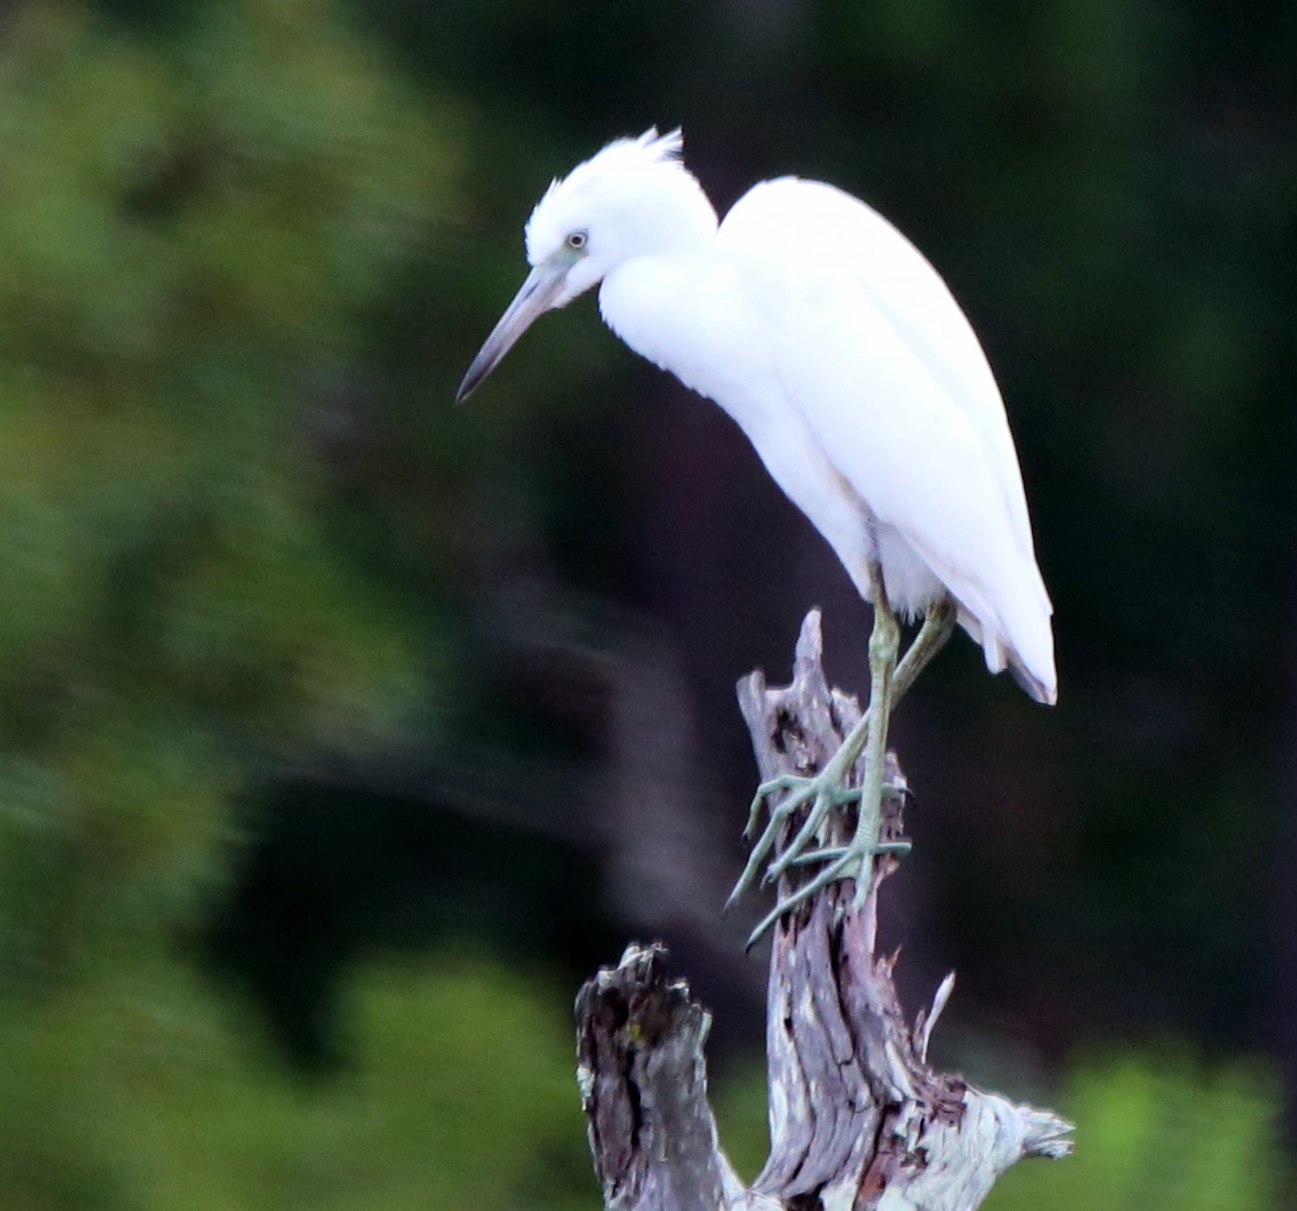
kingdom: Animalia
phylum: Chordata
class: Aves
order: Pelecaniformes
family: Ardeidae
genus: Egretta
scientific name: Egretta caerulea
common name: Little blue heron
